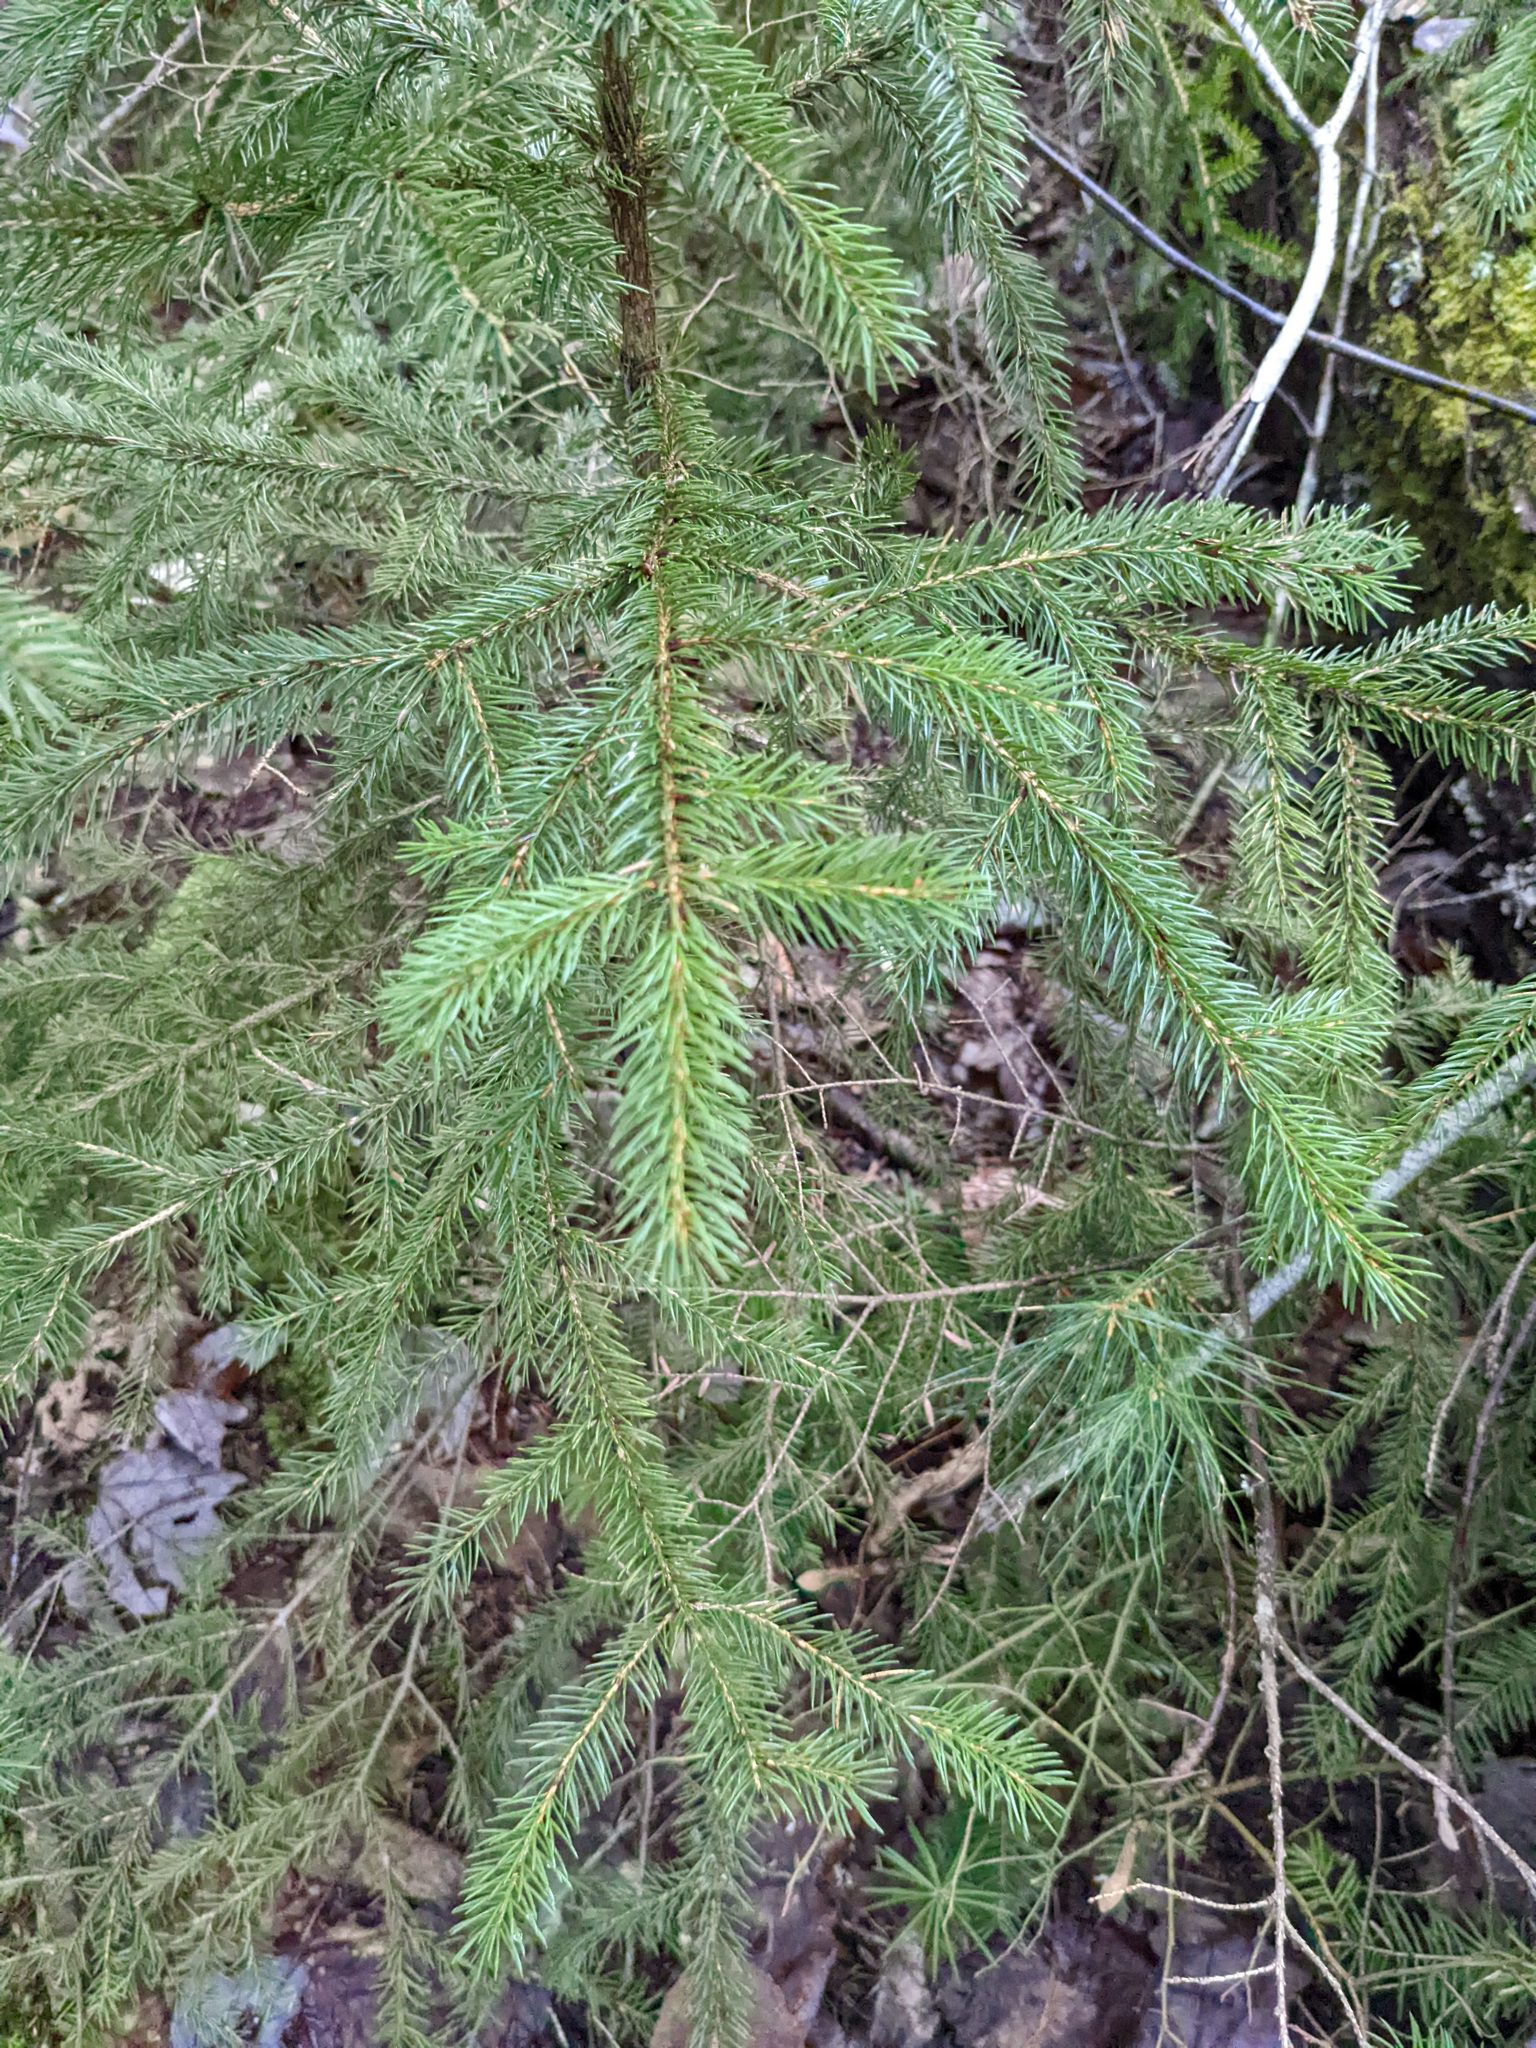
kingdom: Plantae
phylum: Tracheophyta
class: Pinopsida
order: Pinales
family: Pinaceae
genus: Picea
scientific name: Picea rubens
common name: Red spruce
